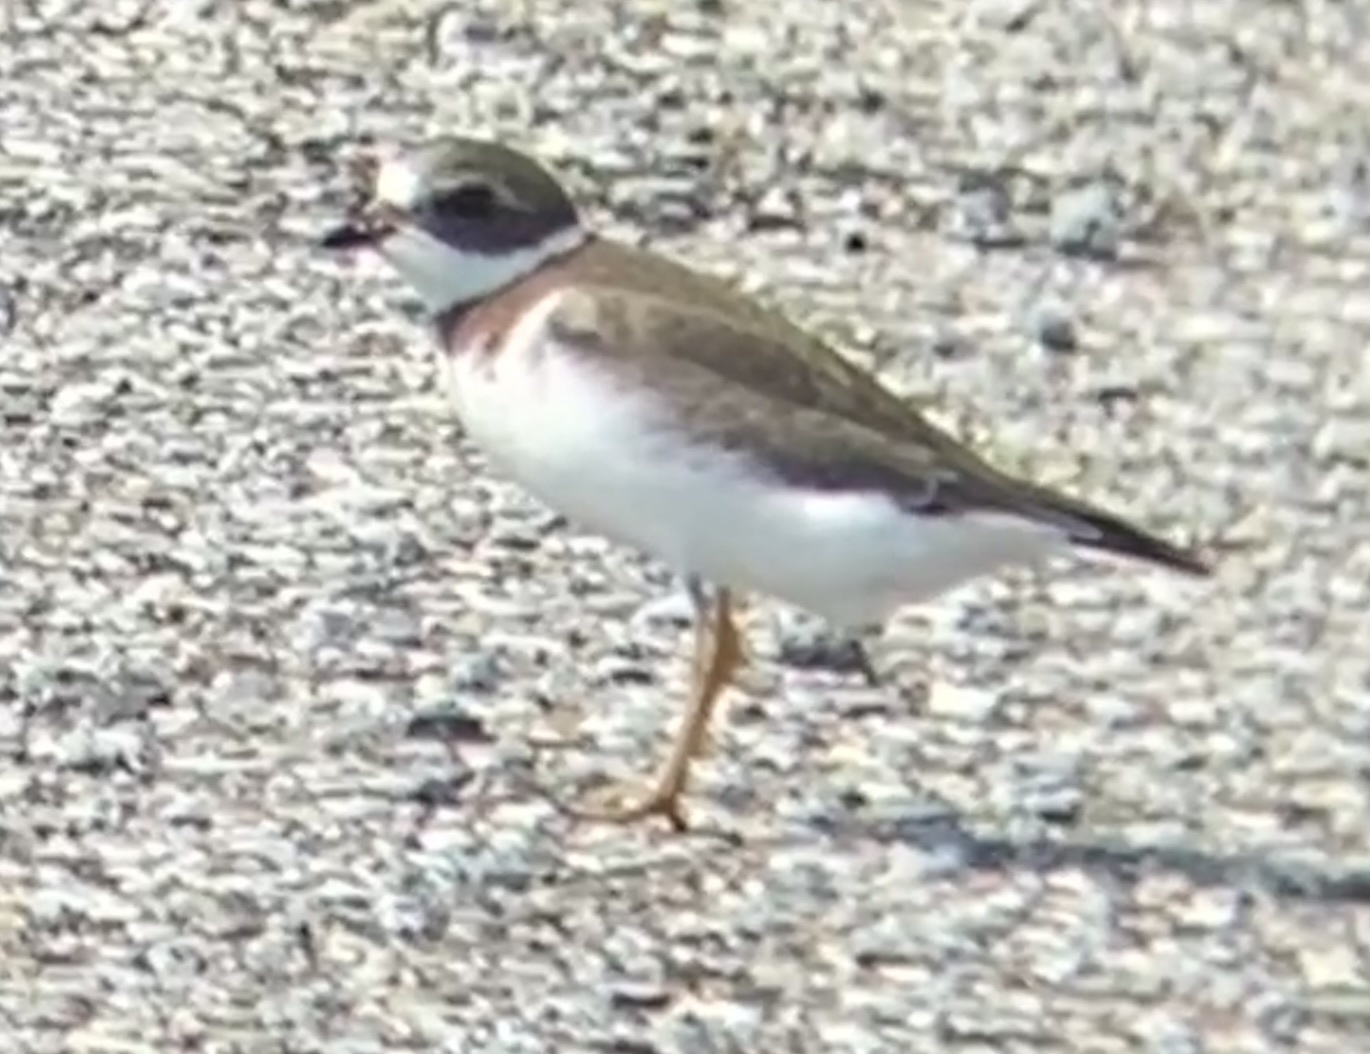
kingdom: Animalia
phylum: Chordata
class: Aves
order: Charadriiformes
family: Charadriidae
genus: Charadrius
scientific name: Charadrius semipalmatus
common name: Semipalmated plover
